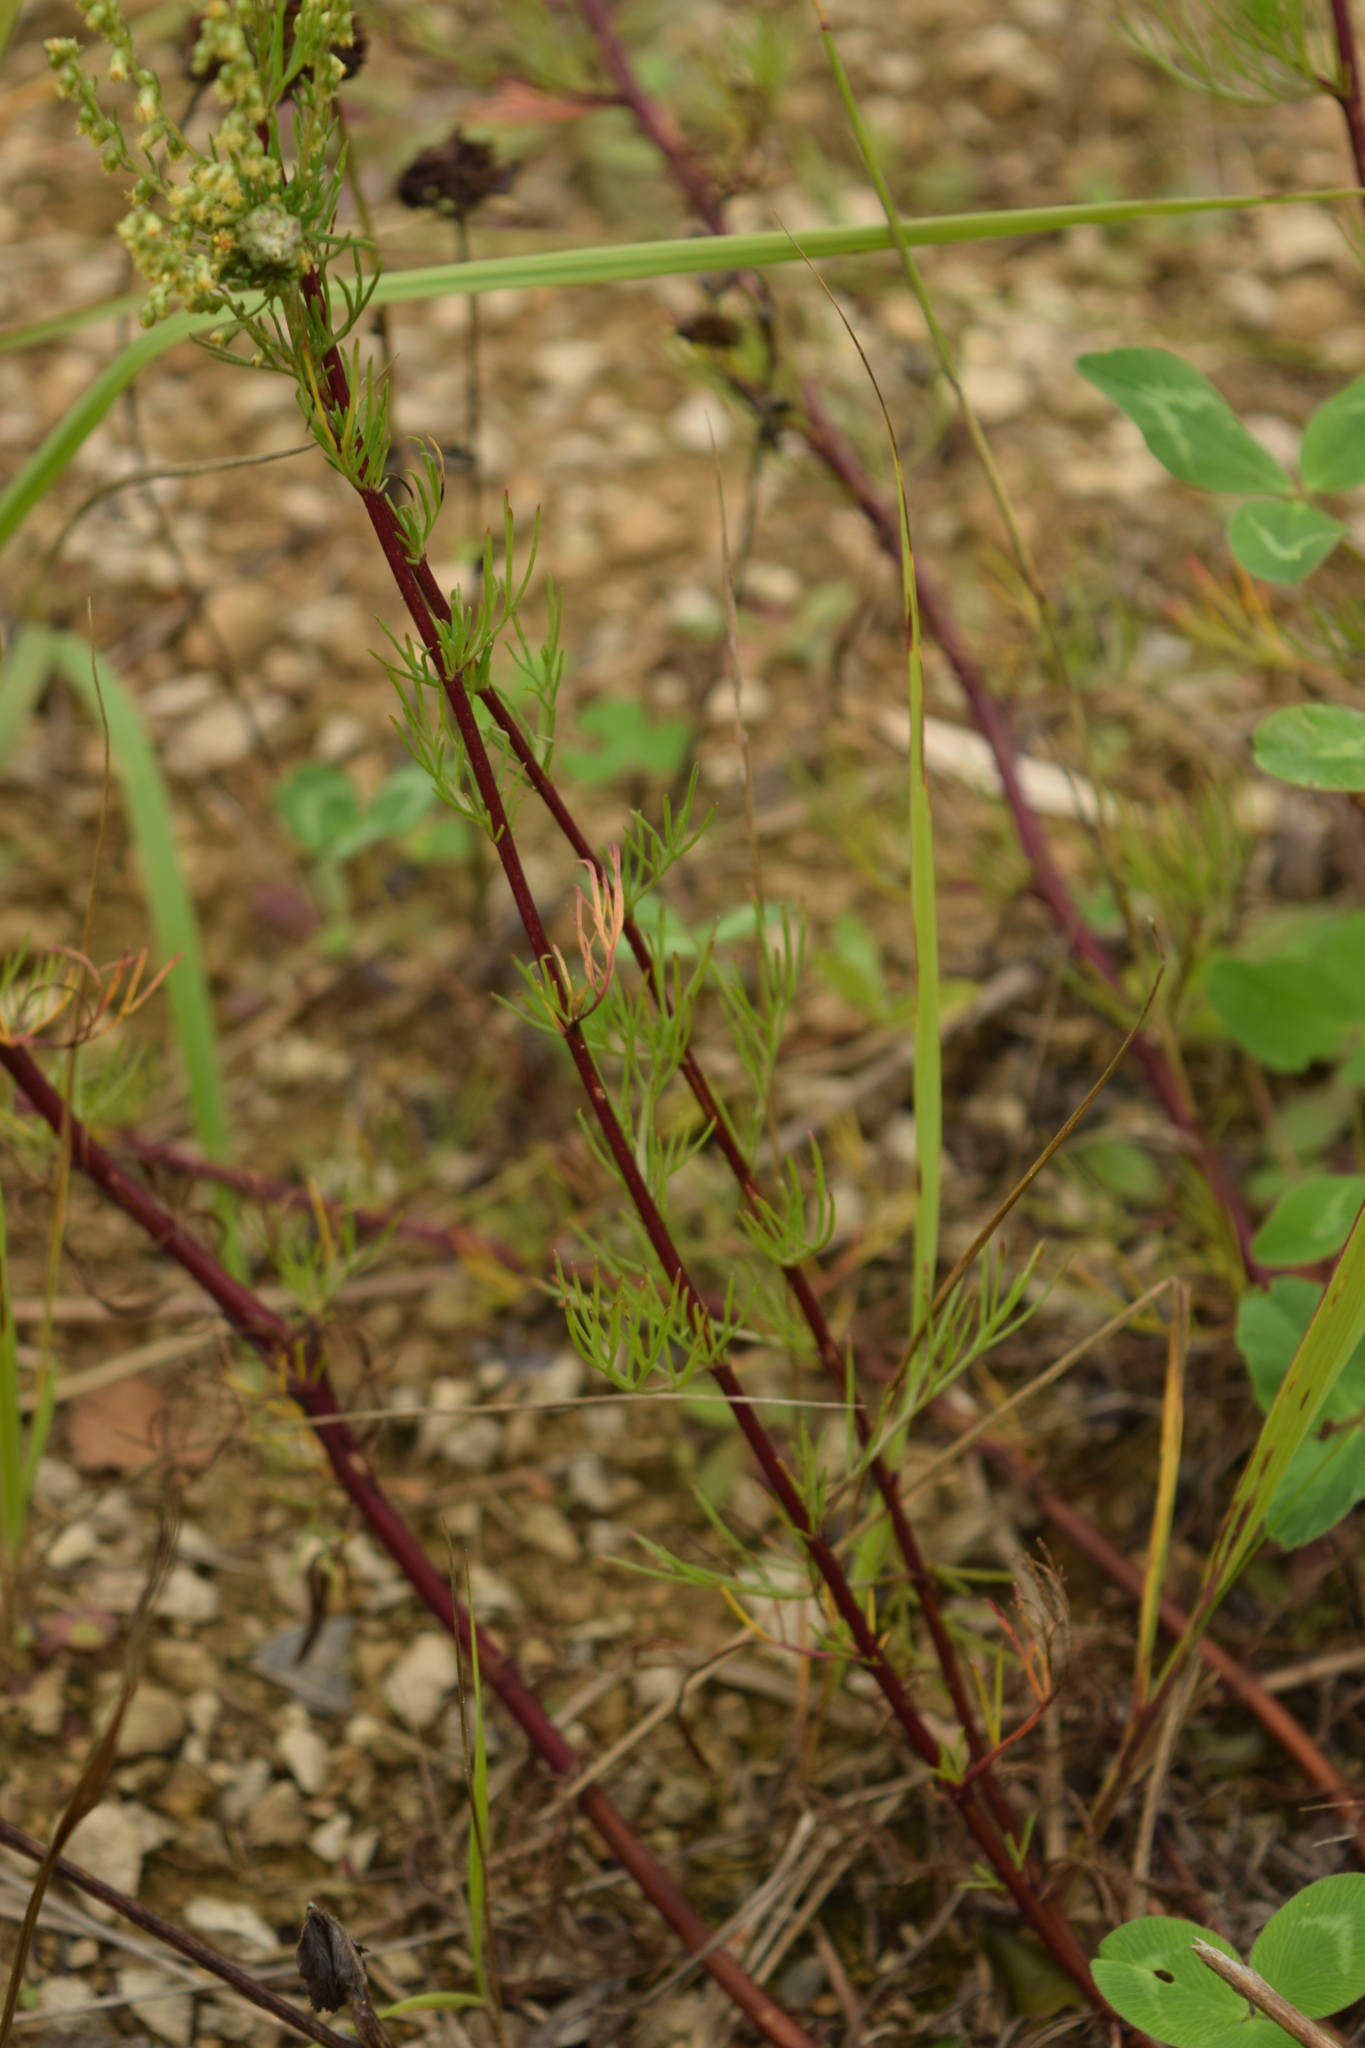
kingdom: Plantae
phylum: Tracheophyta
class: Magnoliopsida
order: Asterales
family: Asteraceae
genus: Artemisia
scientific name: Artemisia campestris
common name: Field wormwood
